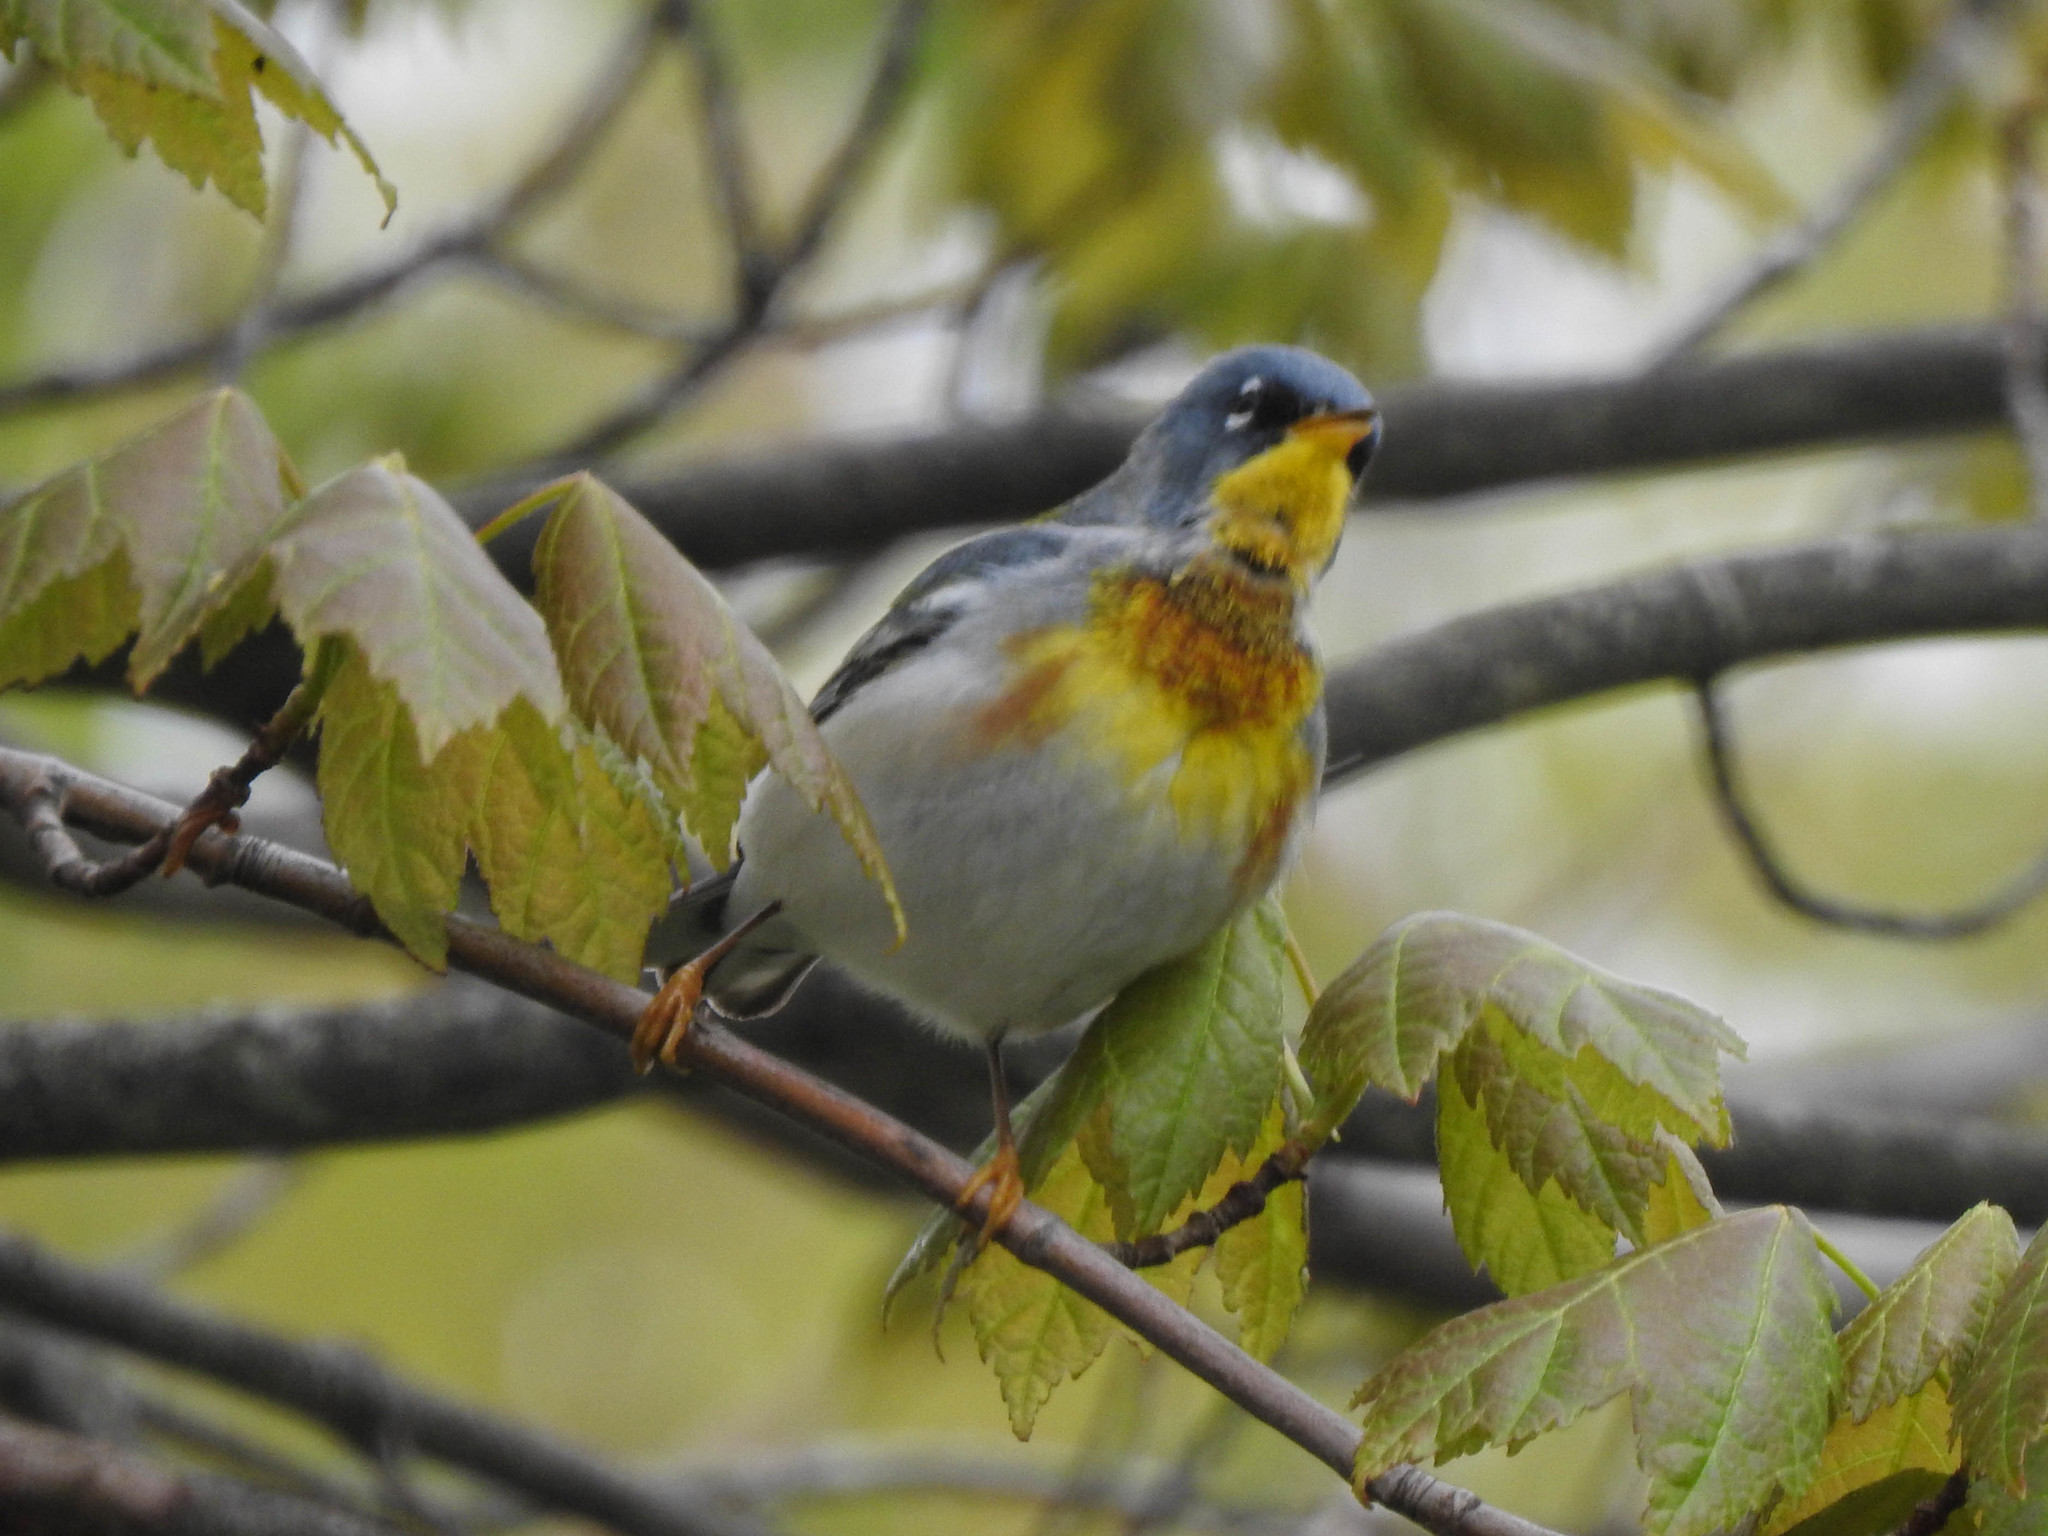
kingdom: Animalia
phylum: Chordata
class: Aves
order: Passeriformes
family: Parulidae
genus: Setophaga
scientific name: Setophaga americana
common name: Northern parula
